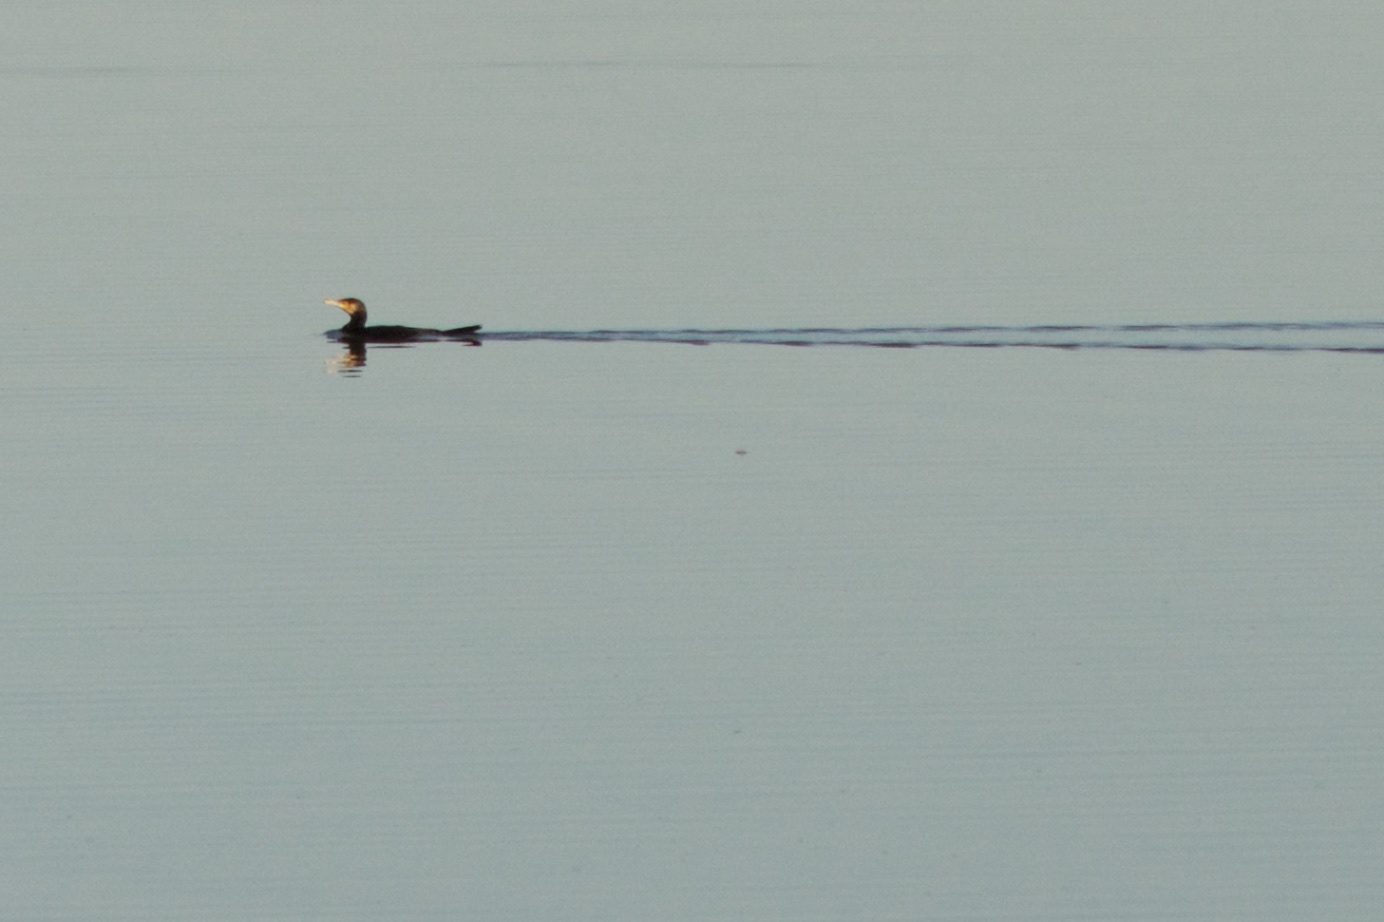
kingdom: Animalia
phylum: Chordata
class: Aves
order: Suliformes
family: Phalacrocoracidae
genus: Phalacrocorax
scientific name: Phalacrocorax carbo
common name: Great cormorant
